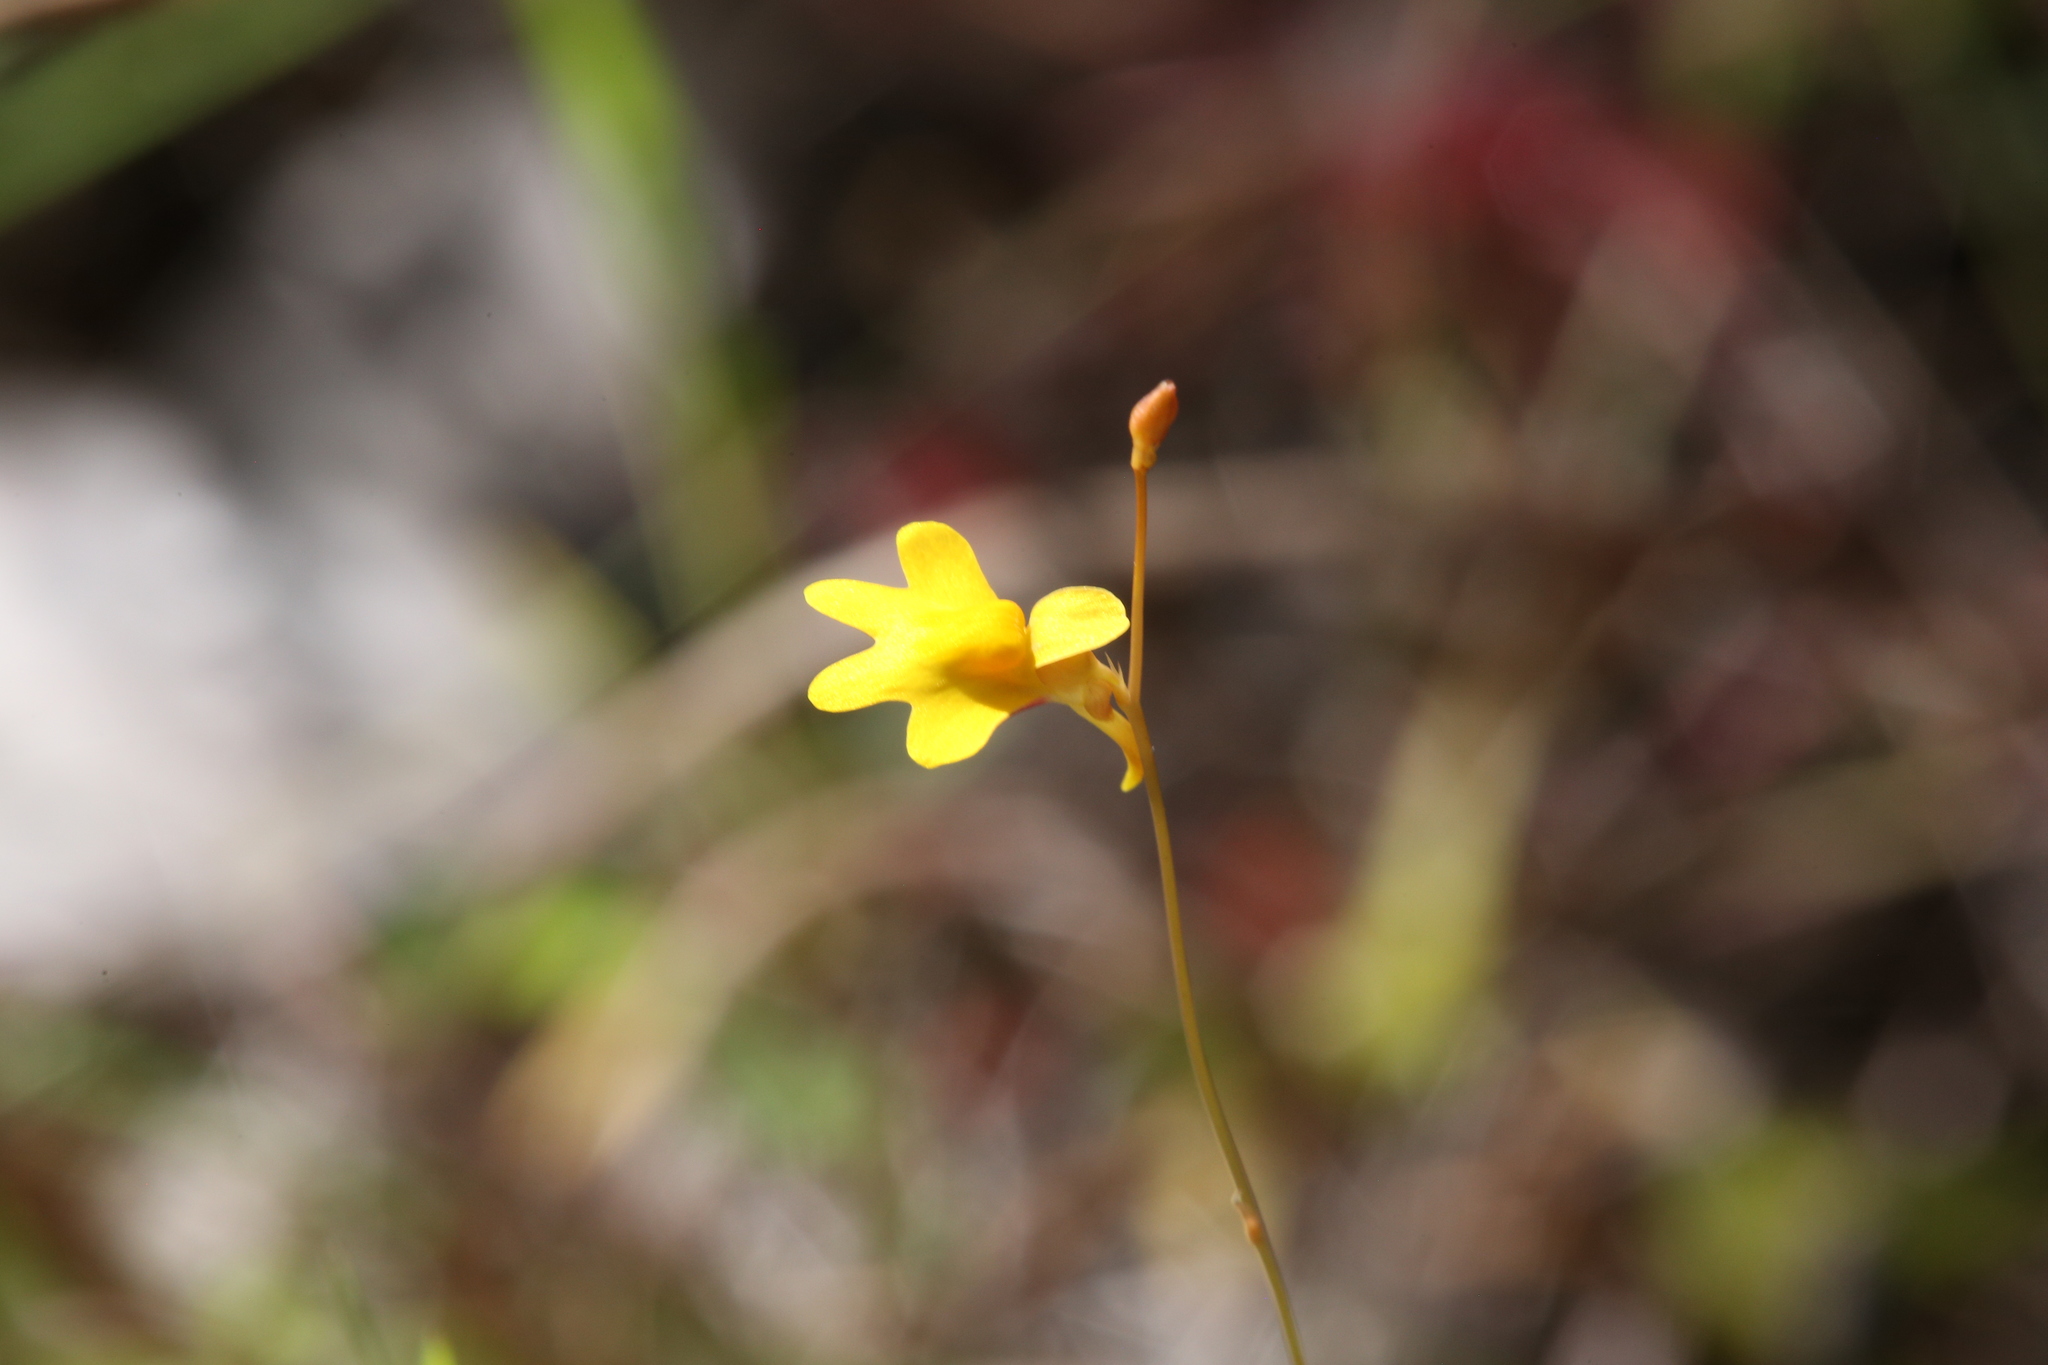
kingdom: Plantae
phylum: Tracheophyta
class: Magnoliopsida
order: Lamiales
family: Lentibulariaceae
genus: Utricularia
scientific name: Utricularia chrysantha
